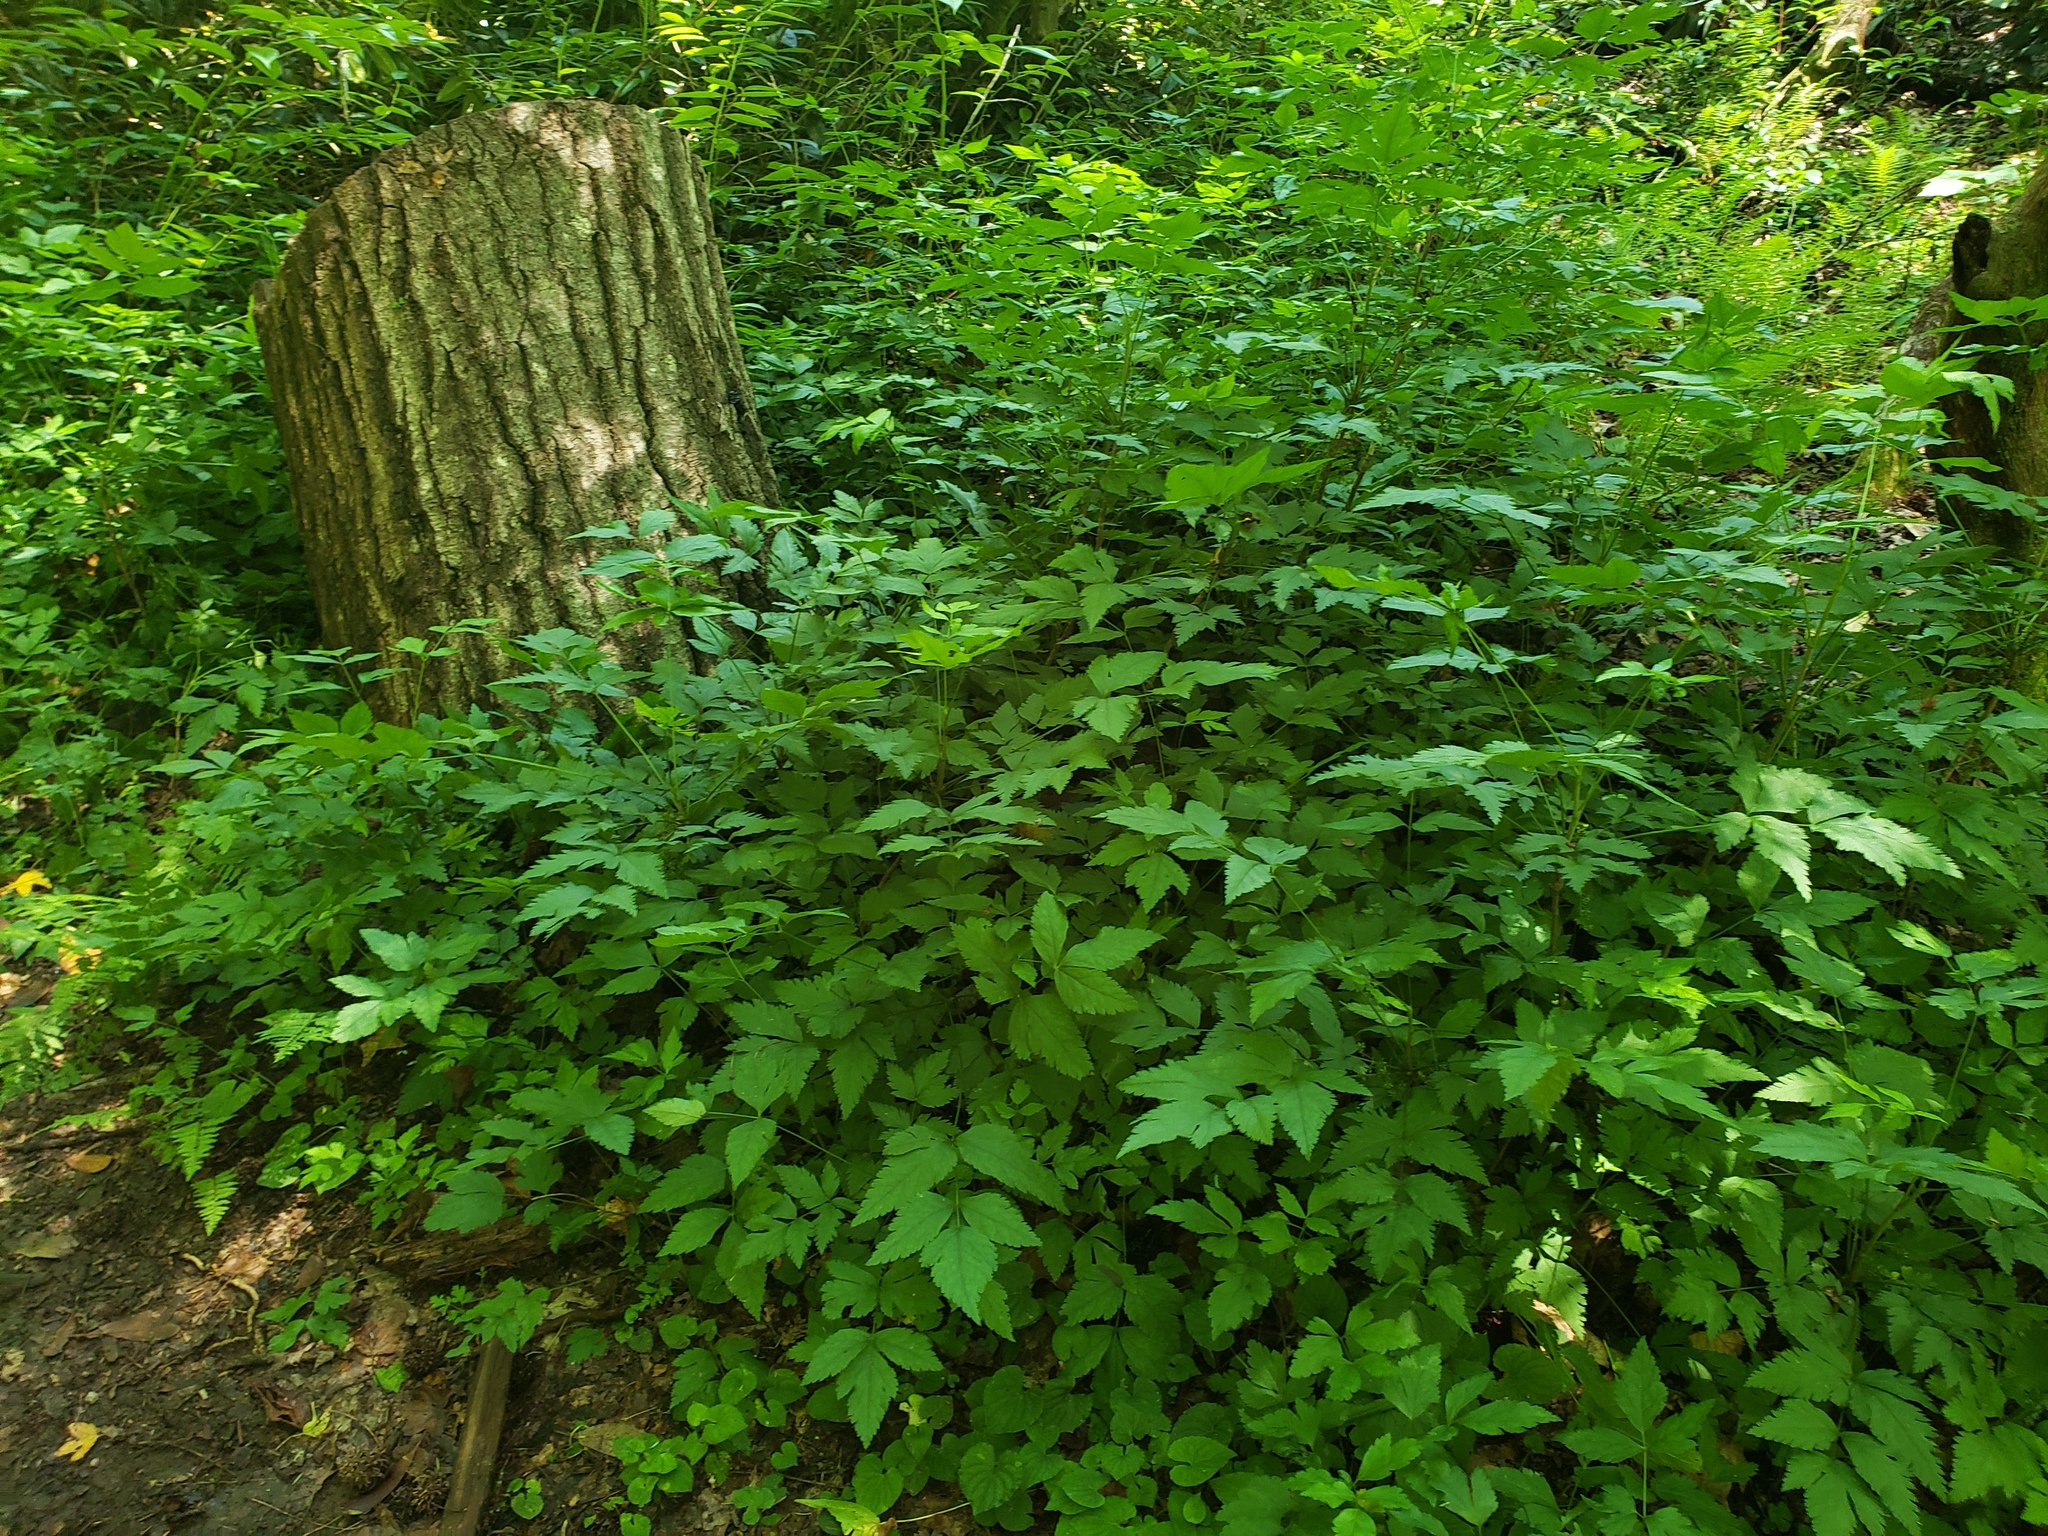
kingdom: Plantae
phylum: Tracheophyta
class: Magnoliopsida
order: Ranunculales
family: Ranunculaceae
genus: Xanthorhiza
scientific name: Xanthorhiza simplicissima
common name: Yellowroot
